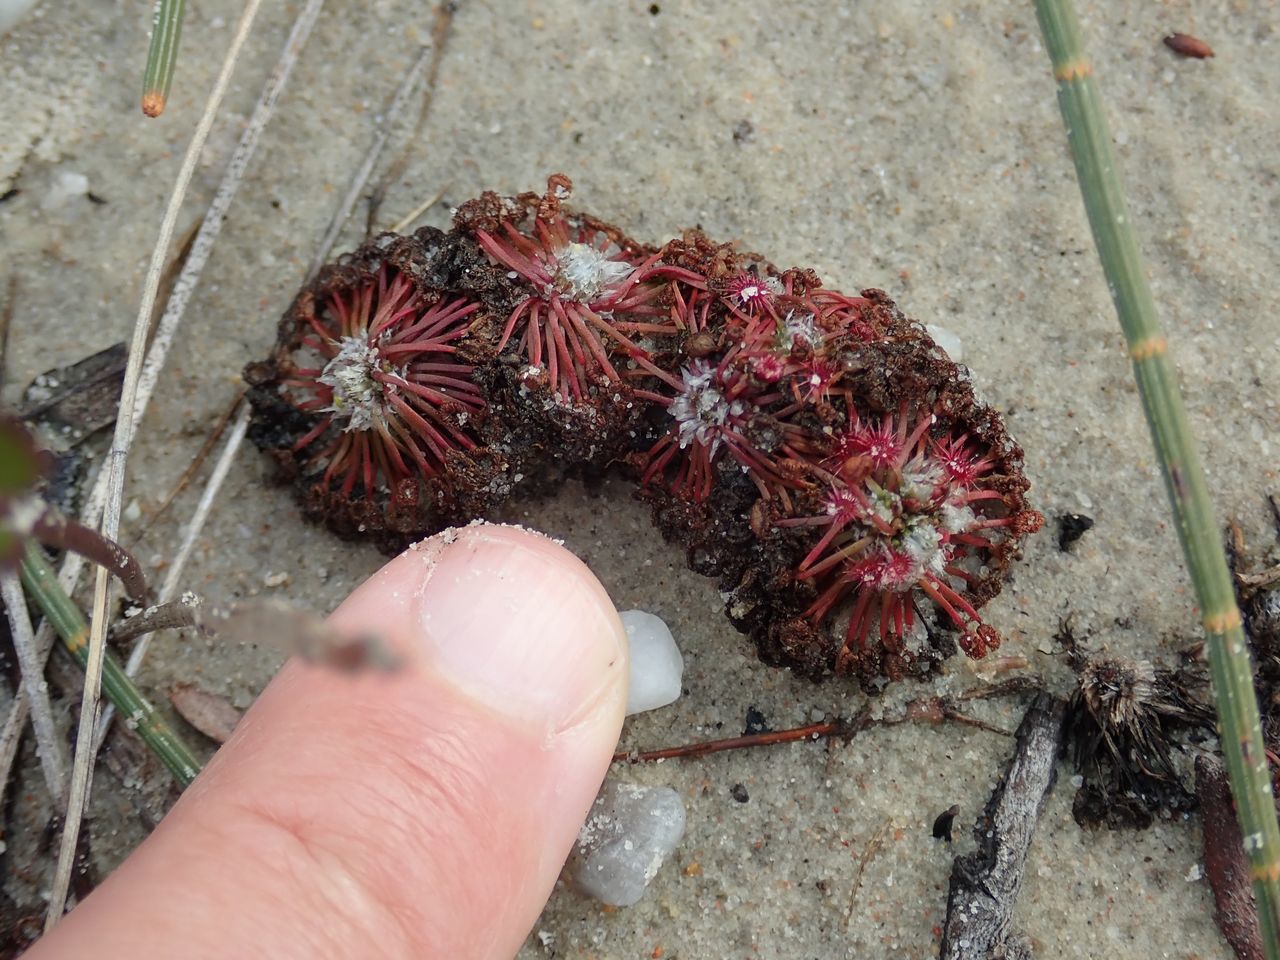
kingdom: Plantae
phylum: Tracheophyta
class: Magnoliopsida
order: Caryophyllales
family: Droseraceae
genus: Drosera
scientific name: Drosera pygmaea
